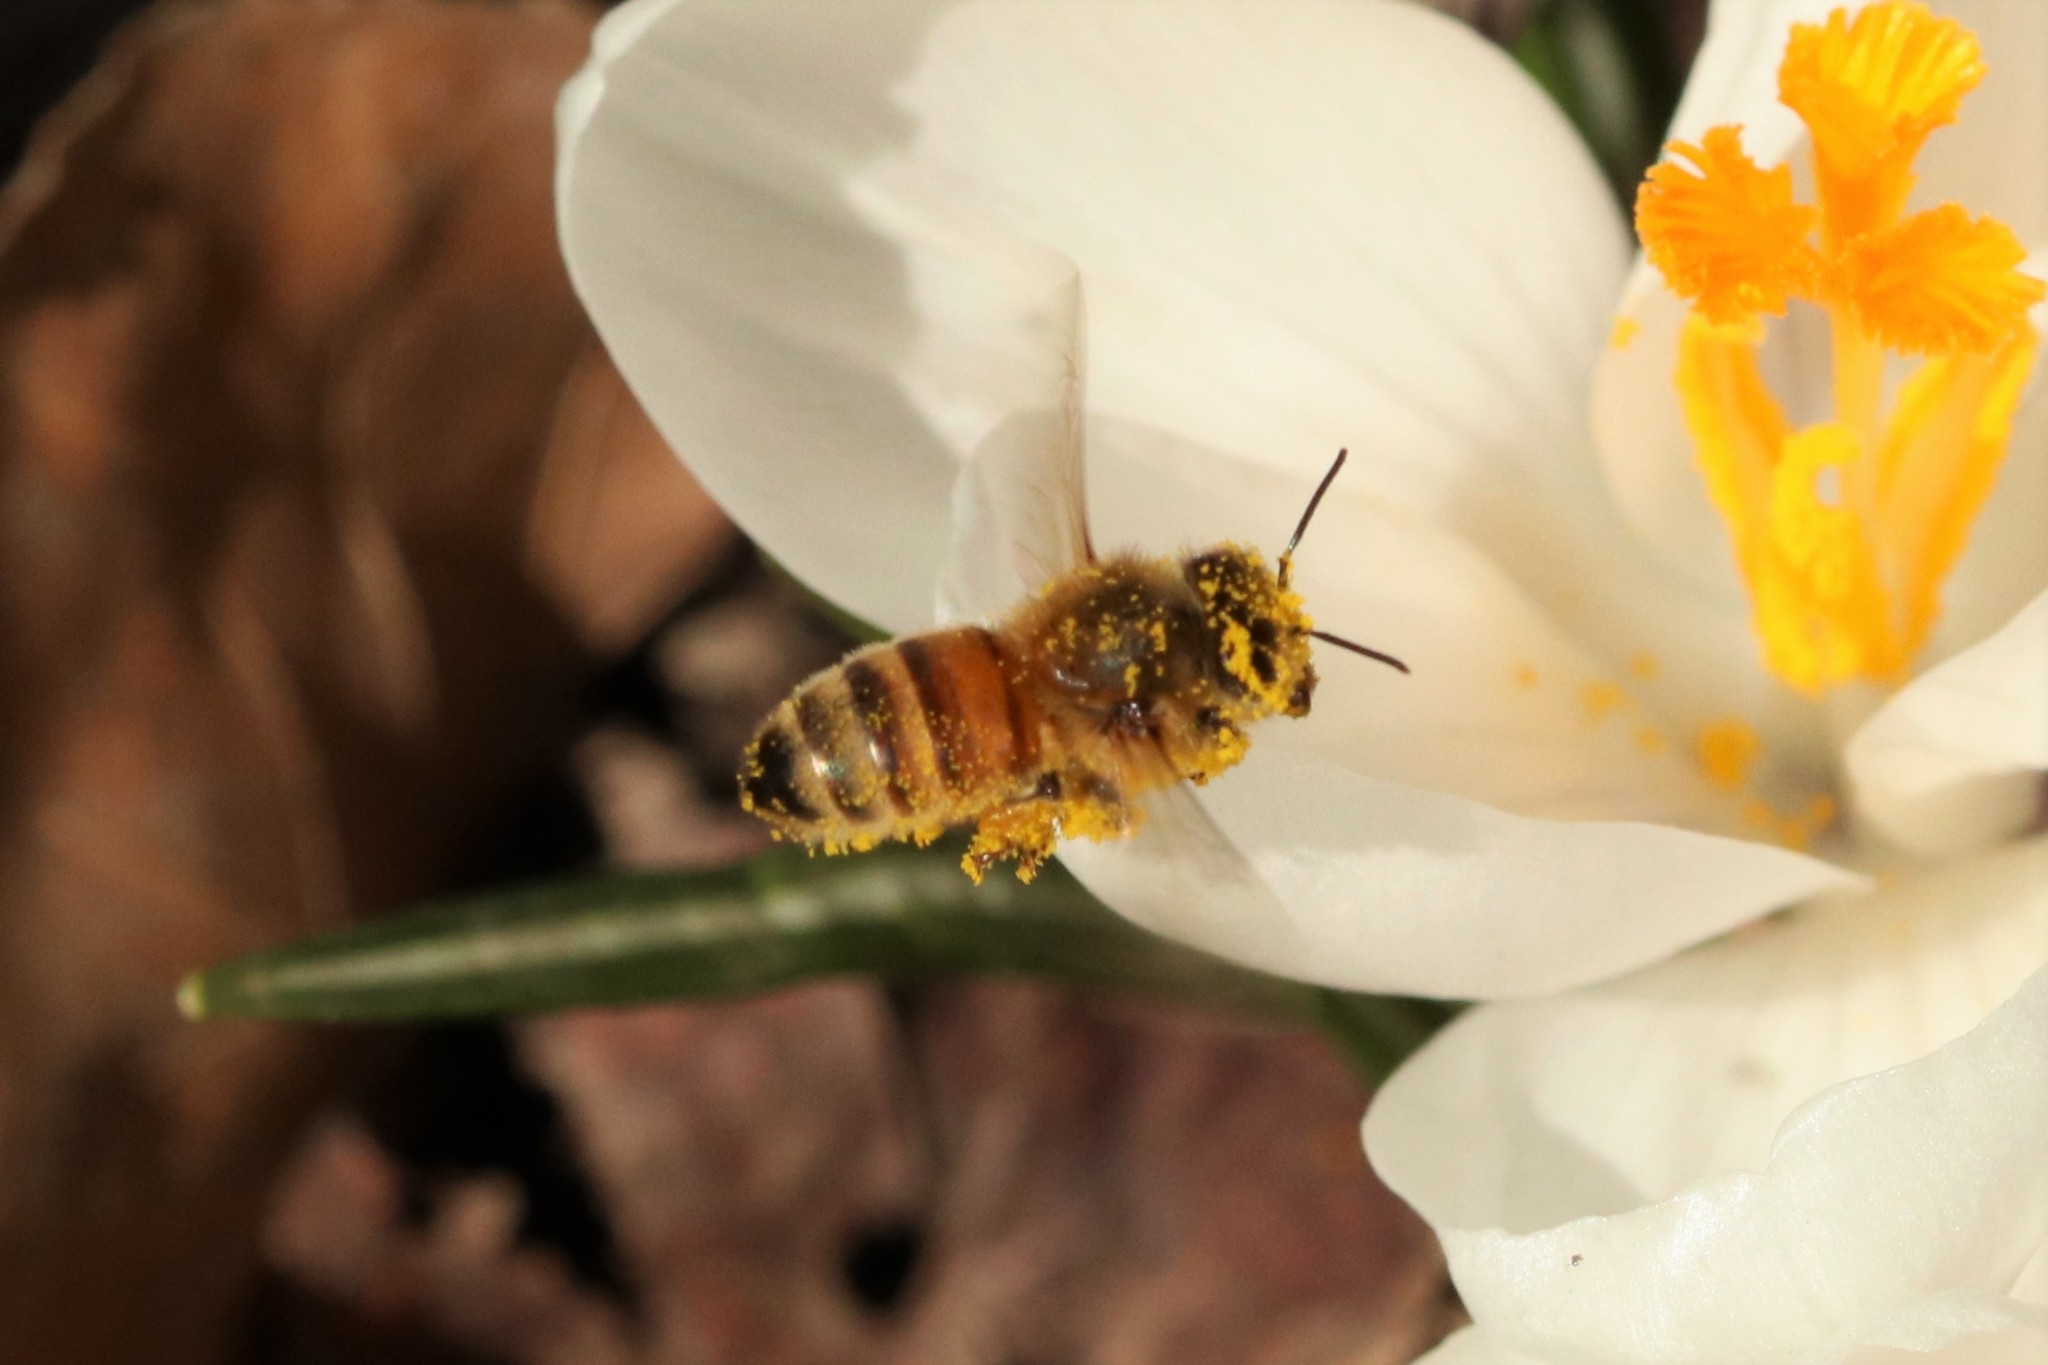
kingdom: Animalia
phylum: Arthropoda
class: Insecta
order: Hymenoptera
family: Apidae
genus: Apis
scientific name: Apis mellifera
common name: Honey bee
